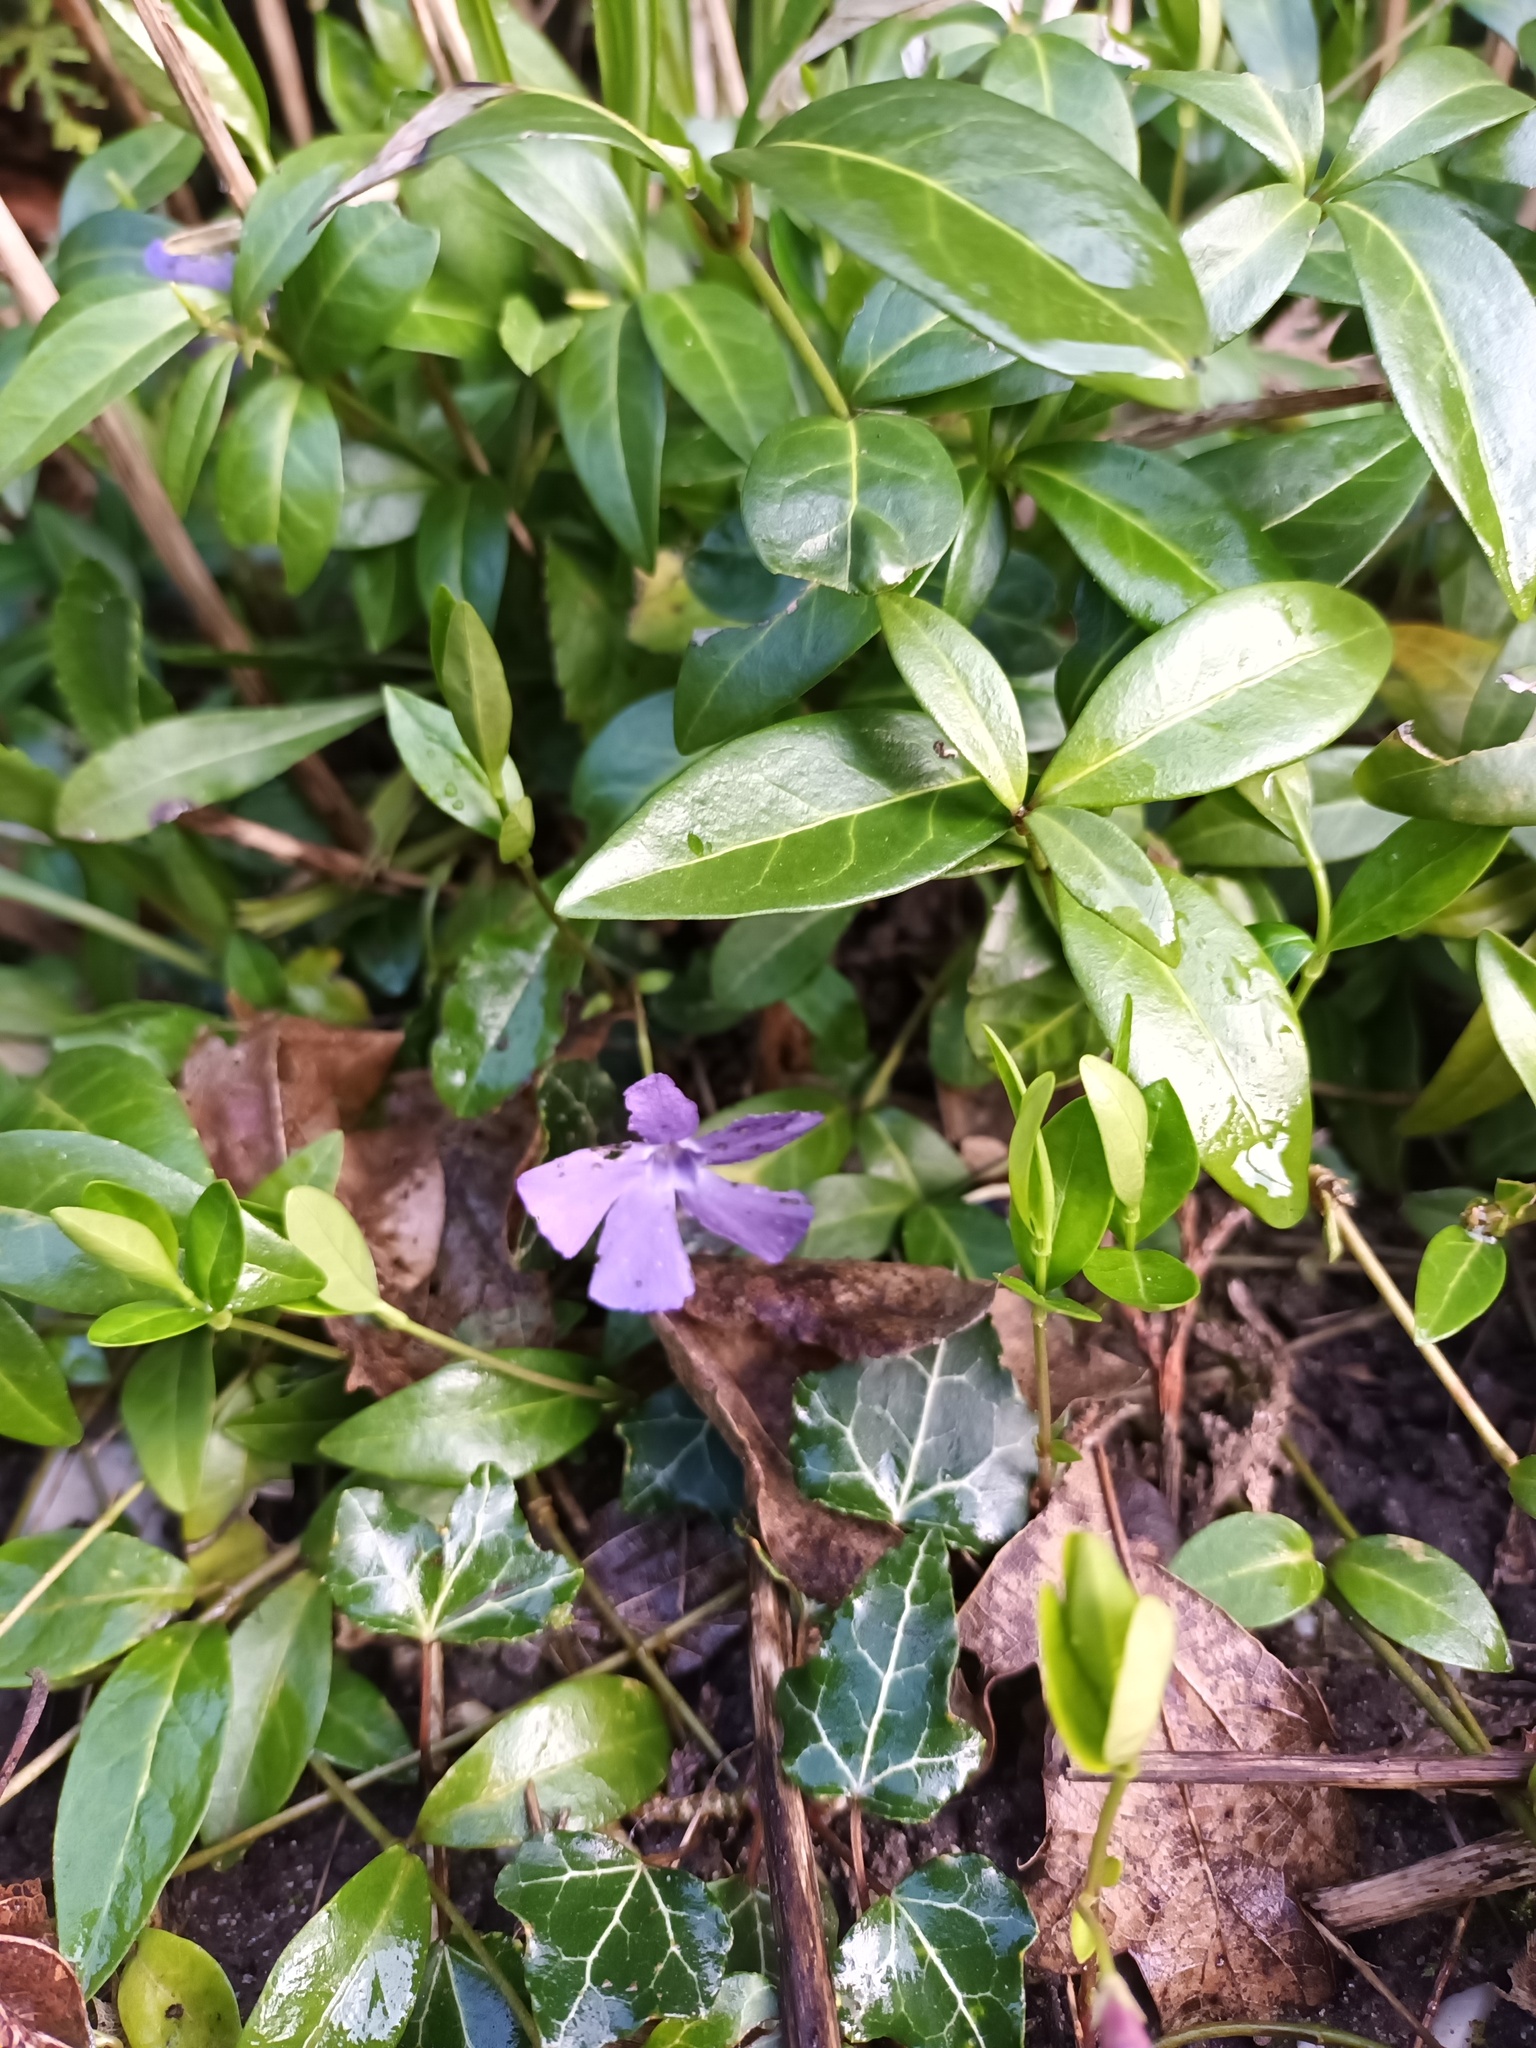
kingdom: Plantae
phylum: Tracheophyta
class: Magnoliopsida
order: Gentianales
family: Apocynaceae
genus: Vinca
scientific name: Vinca minor
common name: Lesser periwinkle
